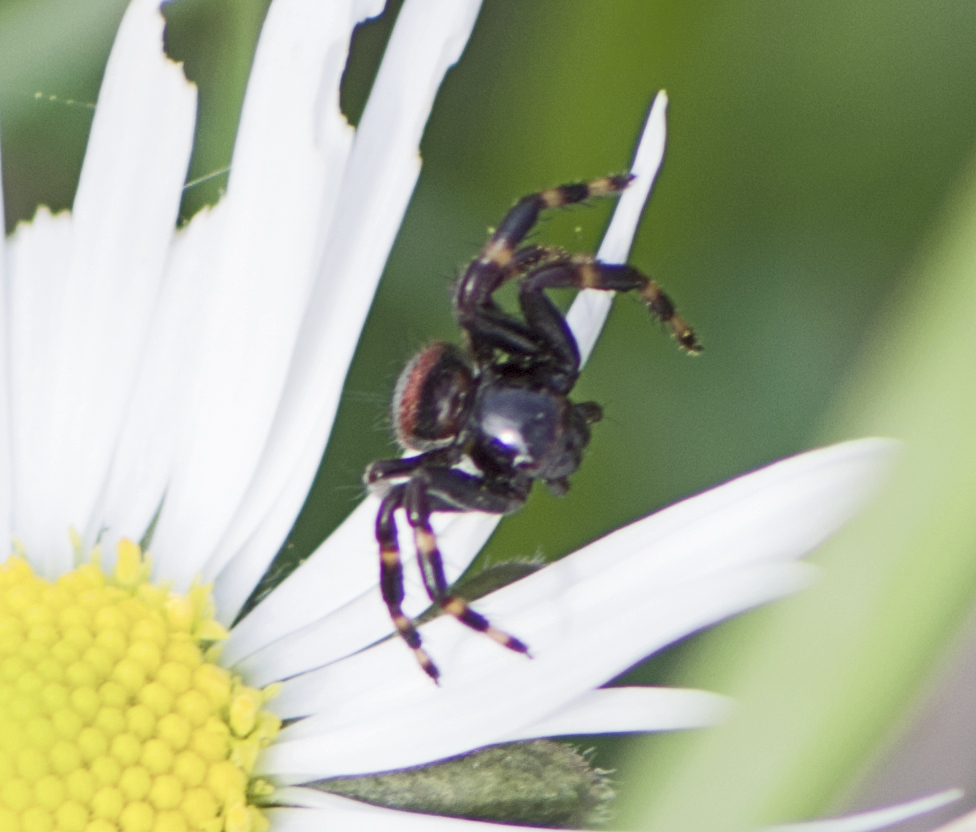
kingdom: Animalia
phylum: Arthropoda
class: Arachnida
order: Araneae
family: Thomisidae
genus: Synema
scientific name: Synema globosum
